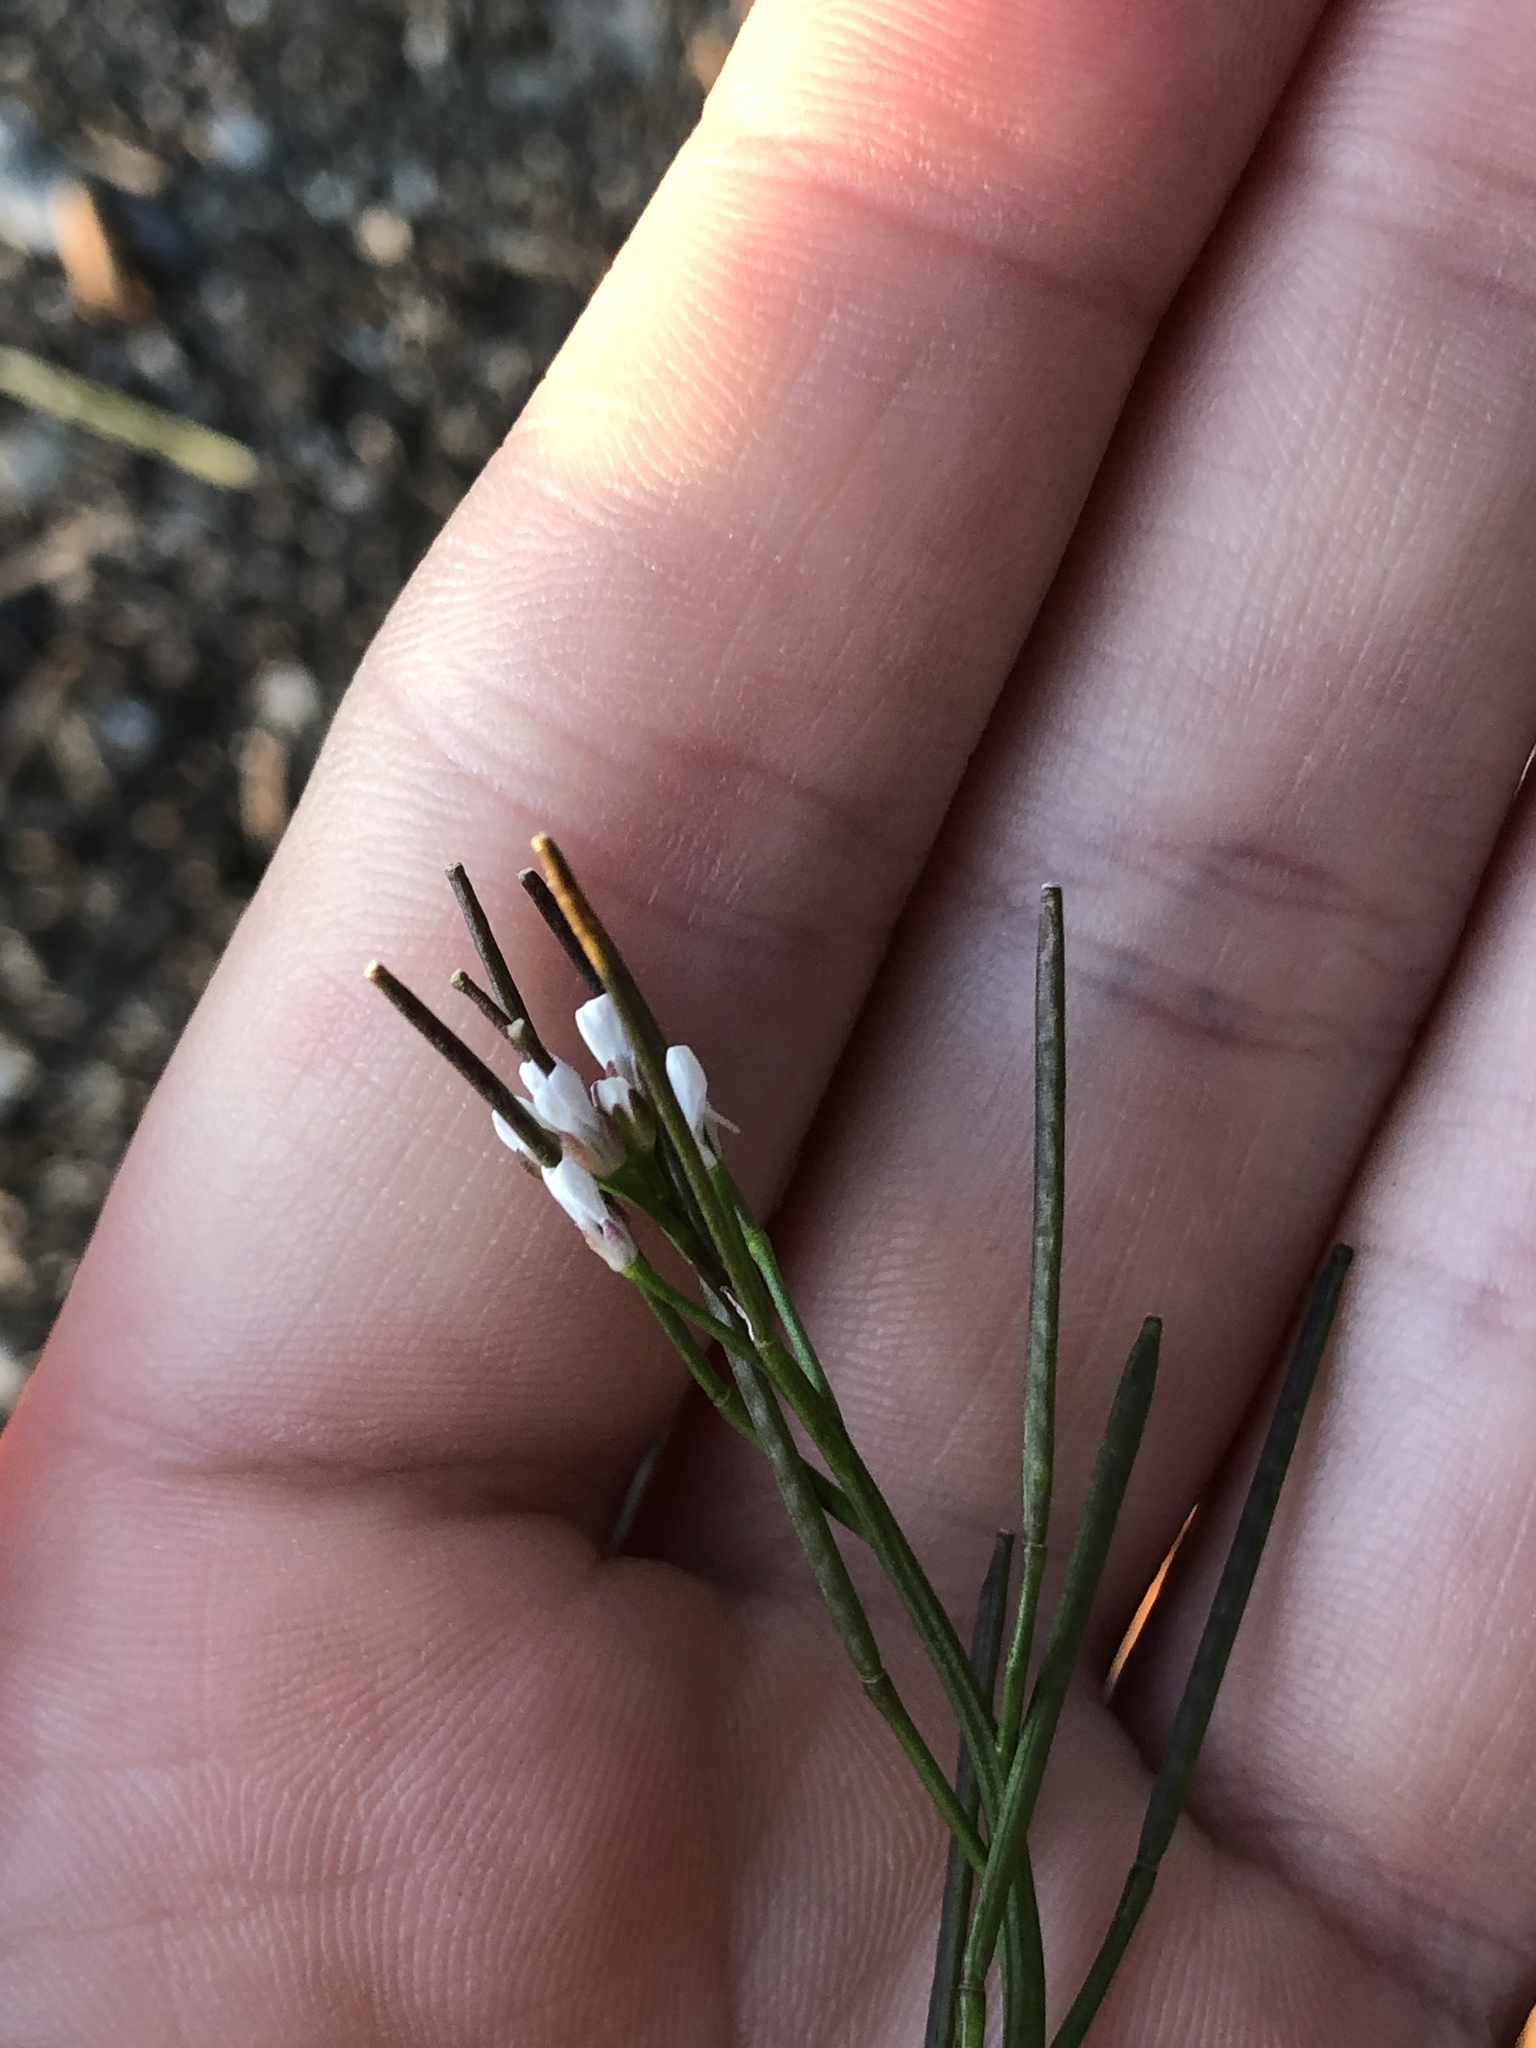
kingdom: Plantae
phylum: Tracheophyta
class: Magnoliopsida
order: Brassicales
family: Brassicaceae
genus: Cardamine
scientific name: Cardamine hirsuta
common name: Hairy bittercress
